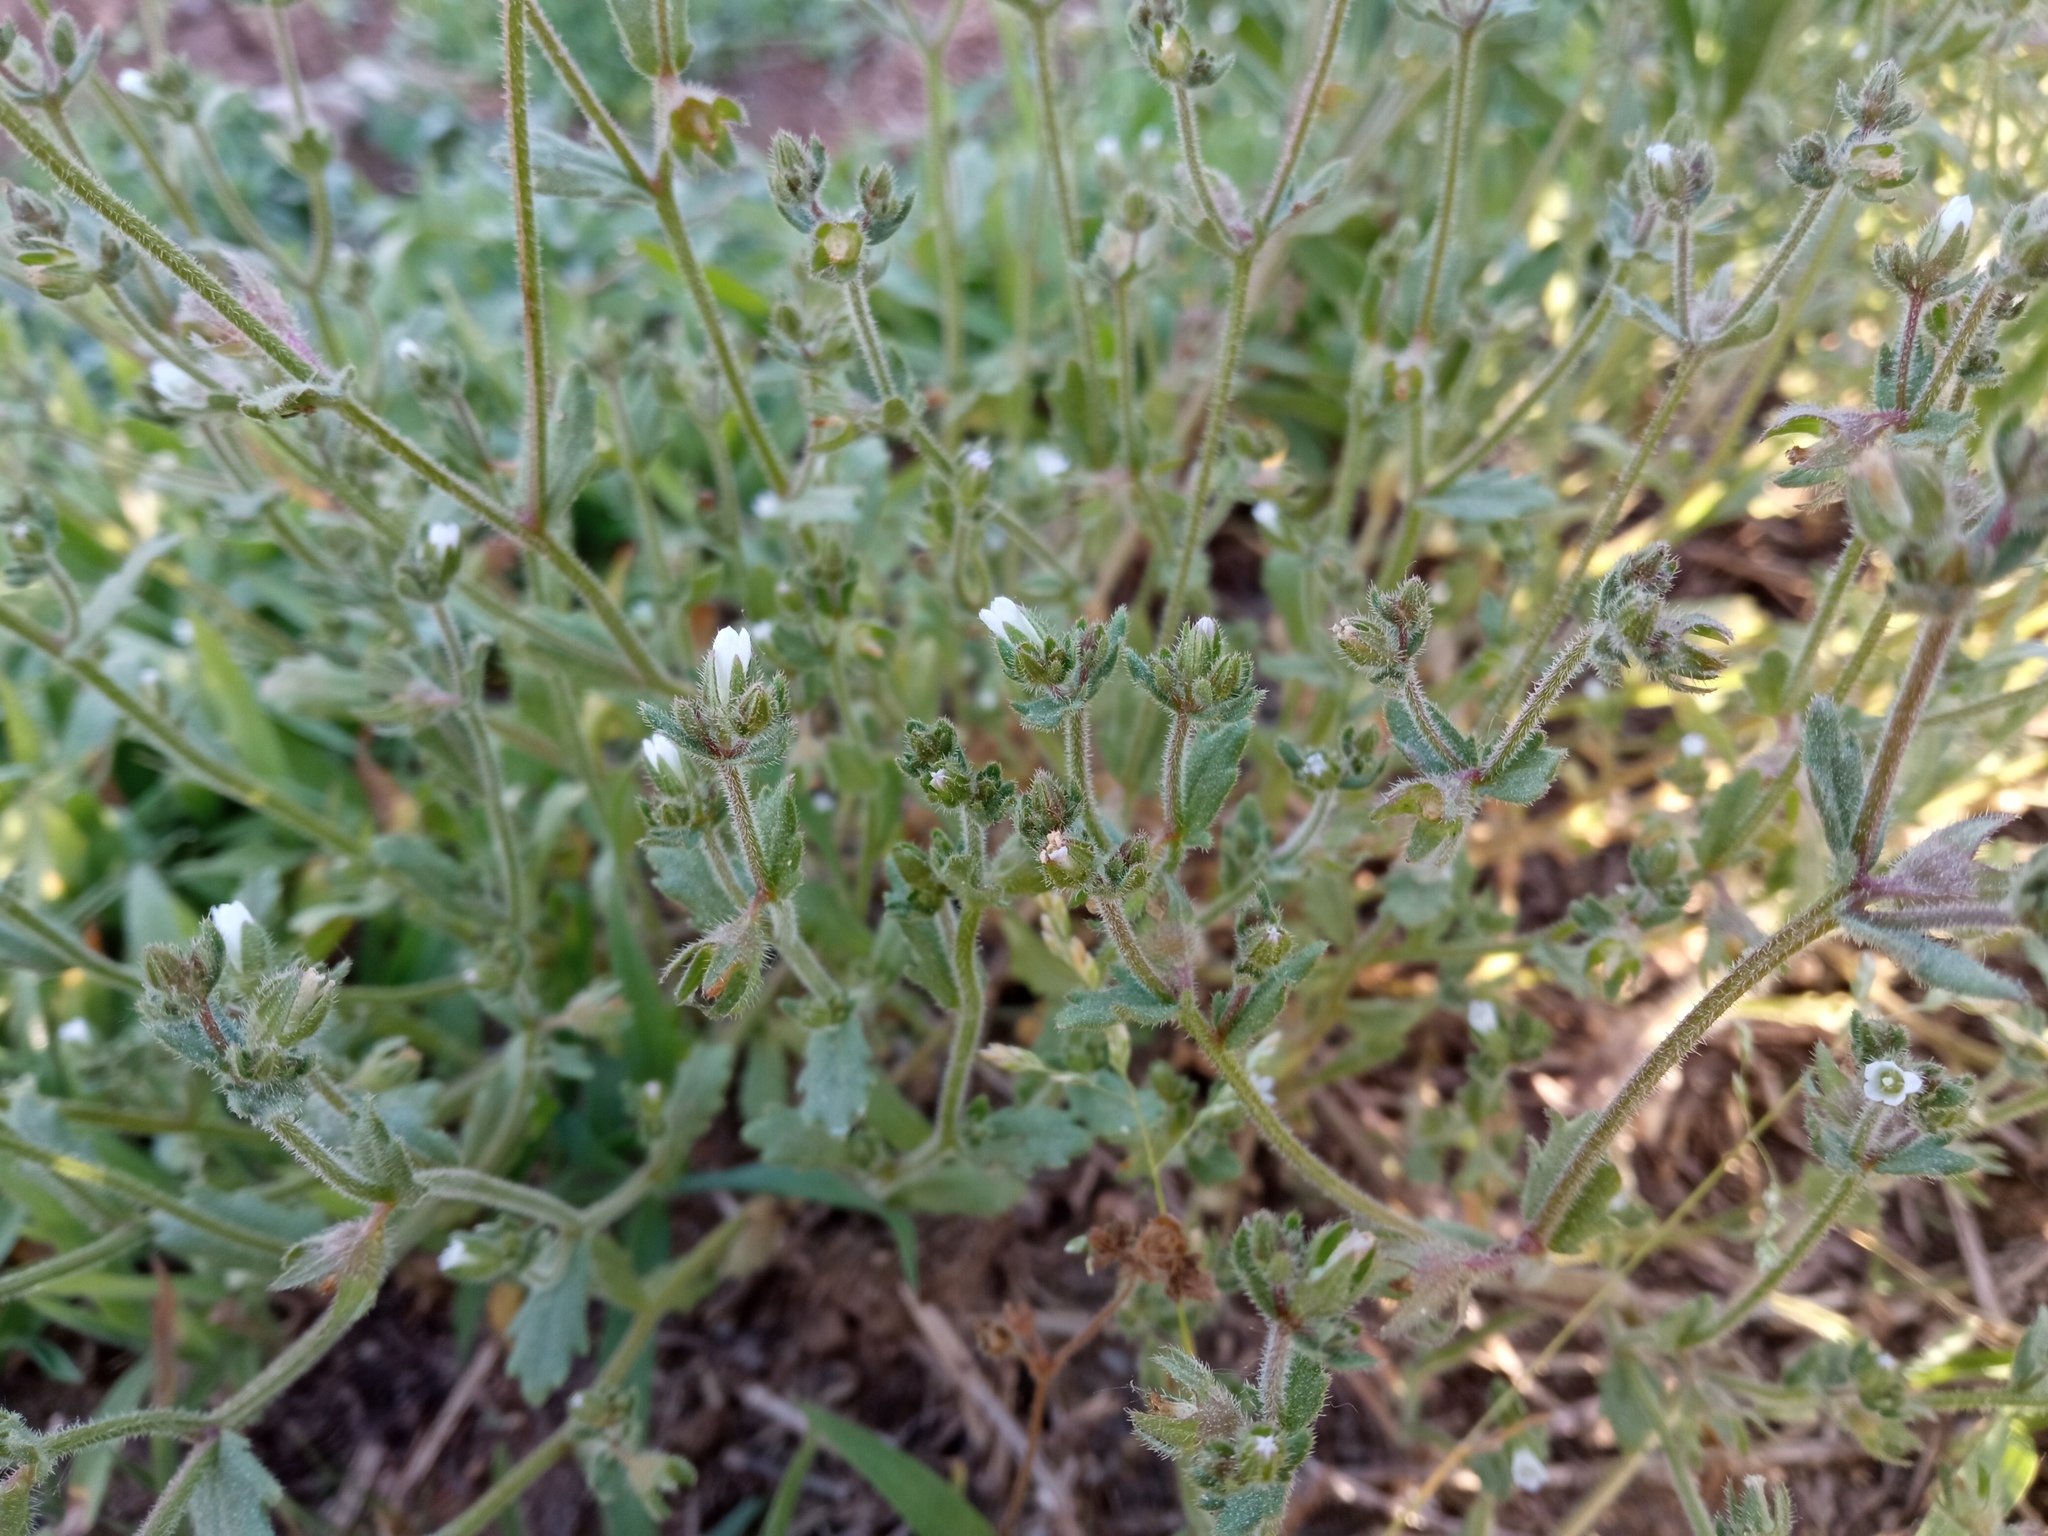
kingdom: Plantae
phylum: Tracheophyta
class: Magnoliopsida
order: Asterales
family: Campanulaceae
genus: Campanula
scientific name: Campanula erinus
